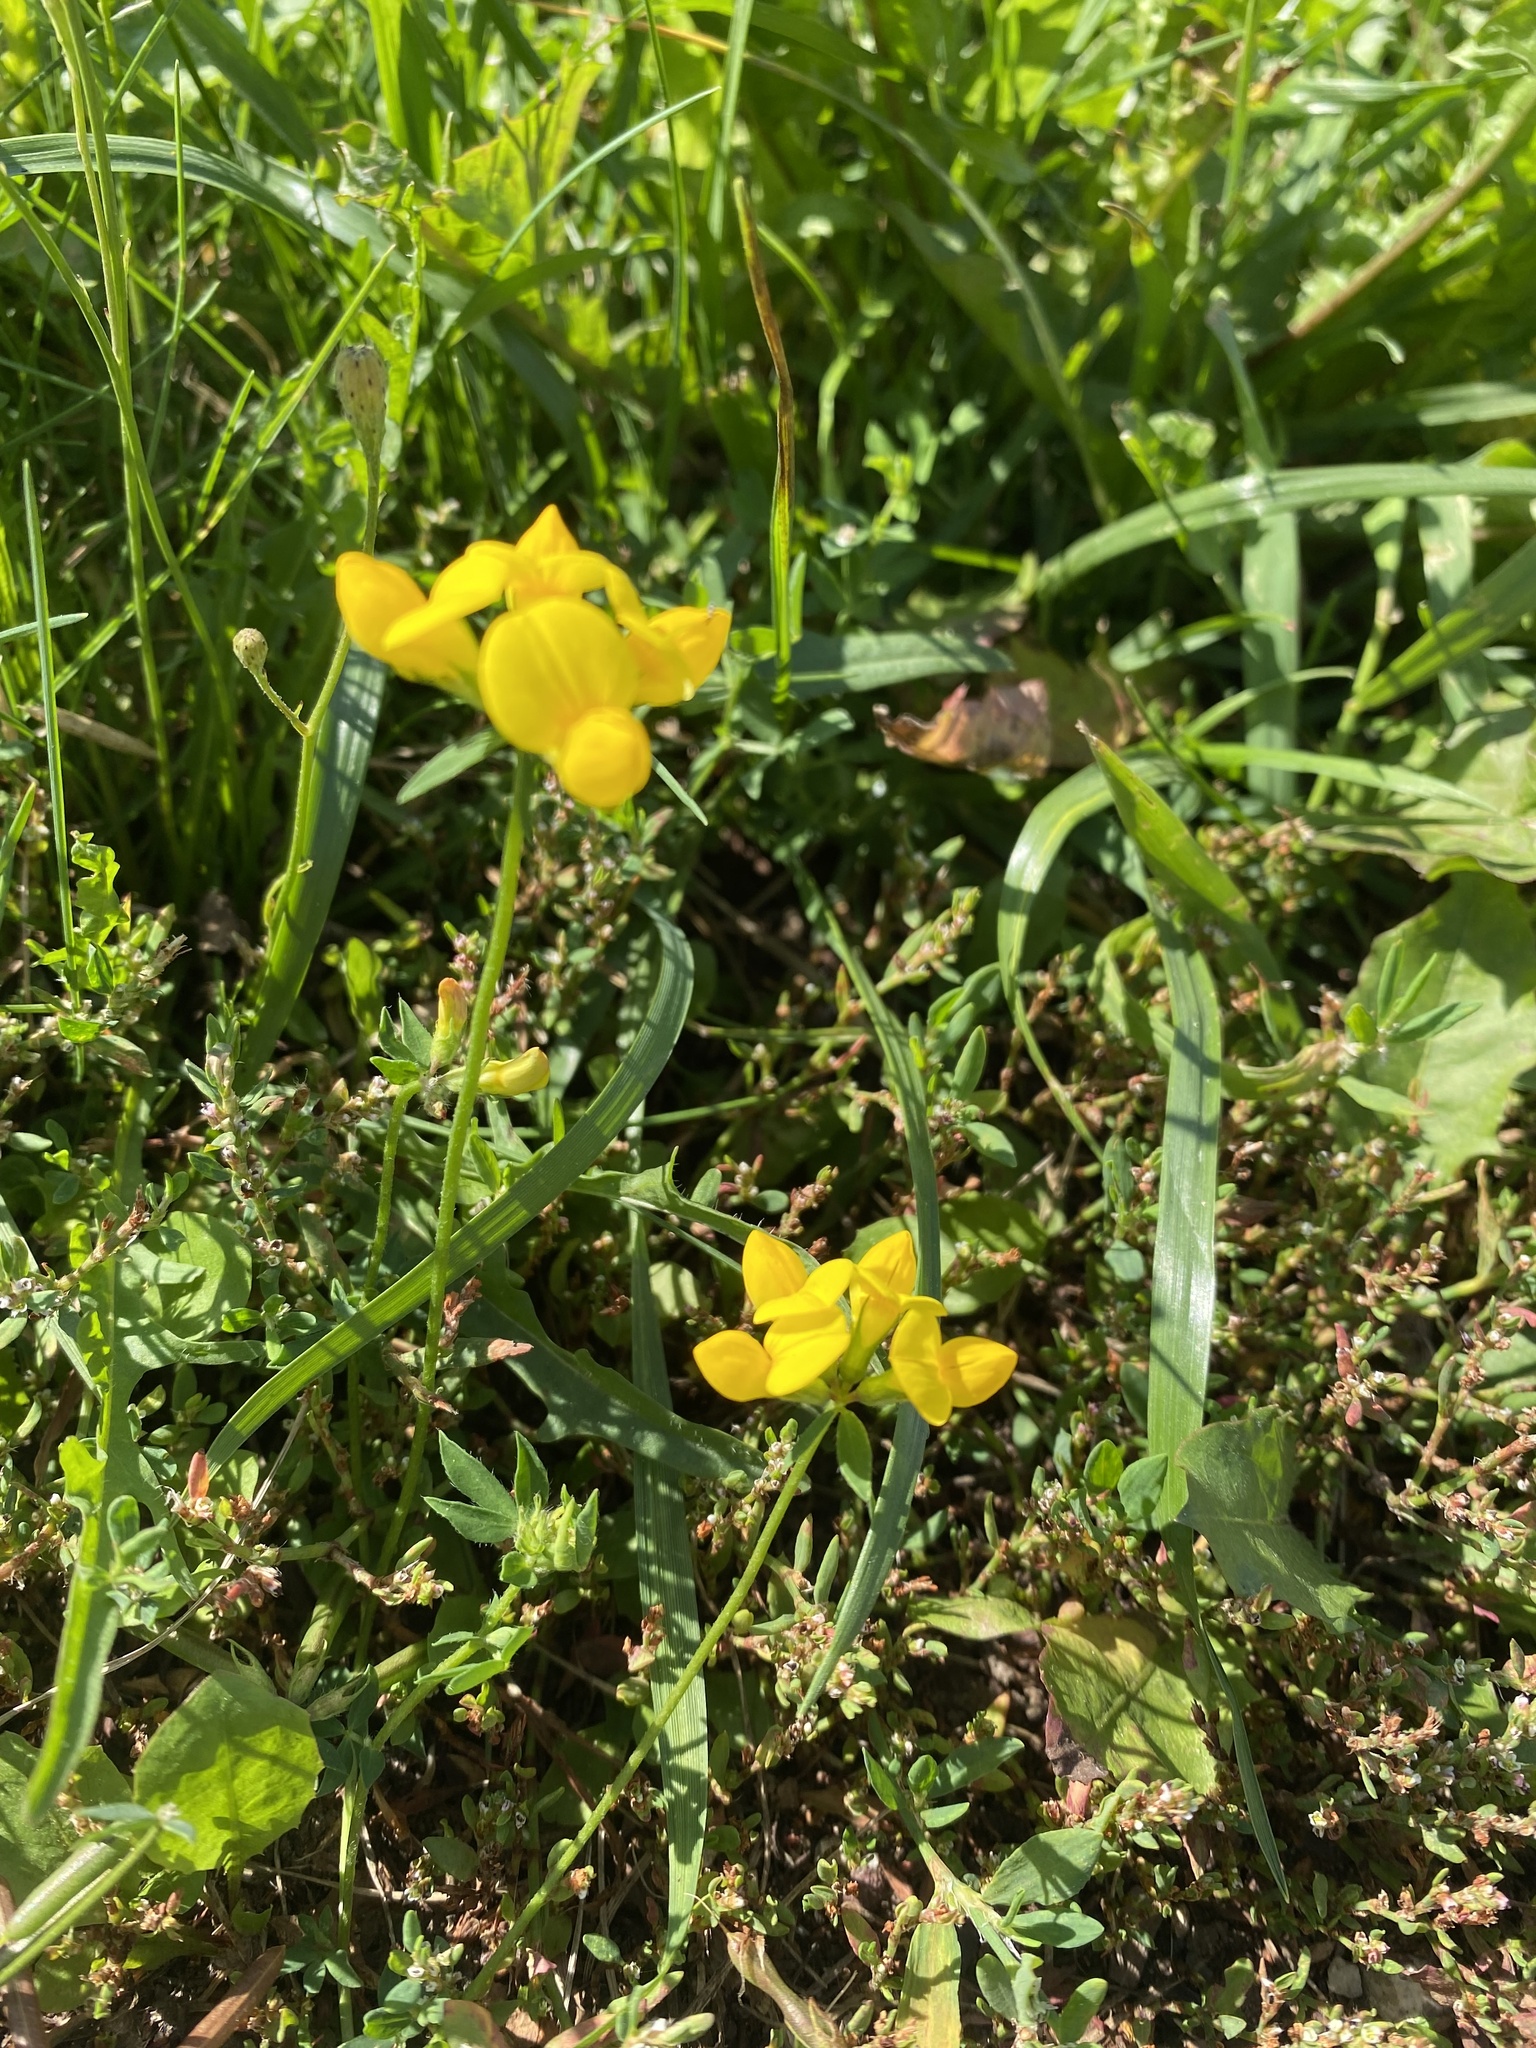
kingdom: Plantae
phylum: Tracheophyta
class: Magnoliopsida
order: Fabales
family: Fabaceae
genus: Lotus
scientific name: Lotus corniculatus
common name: Common bird's-foot-trefoil
